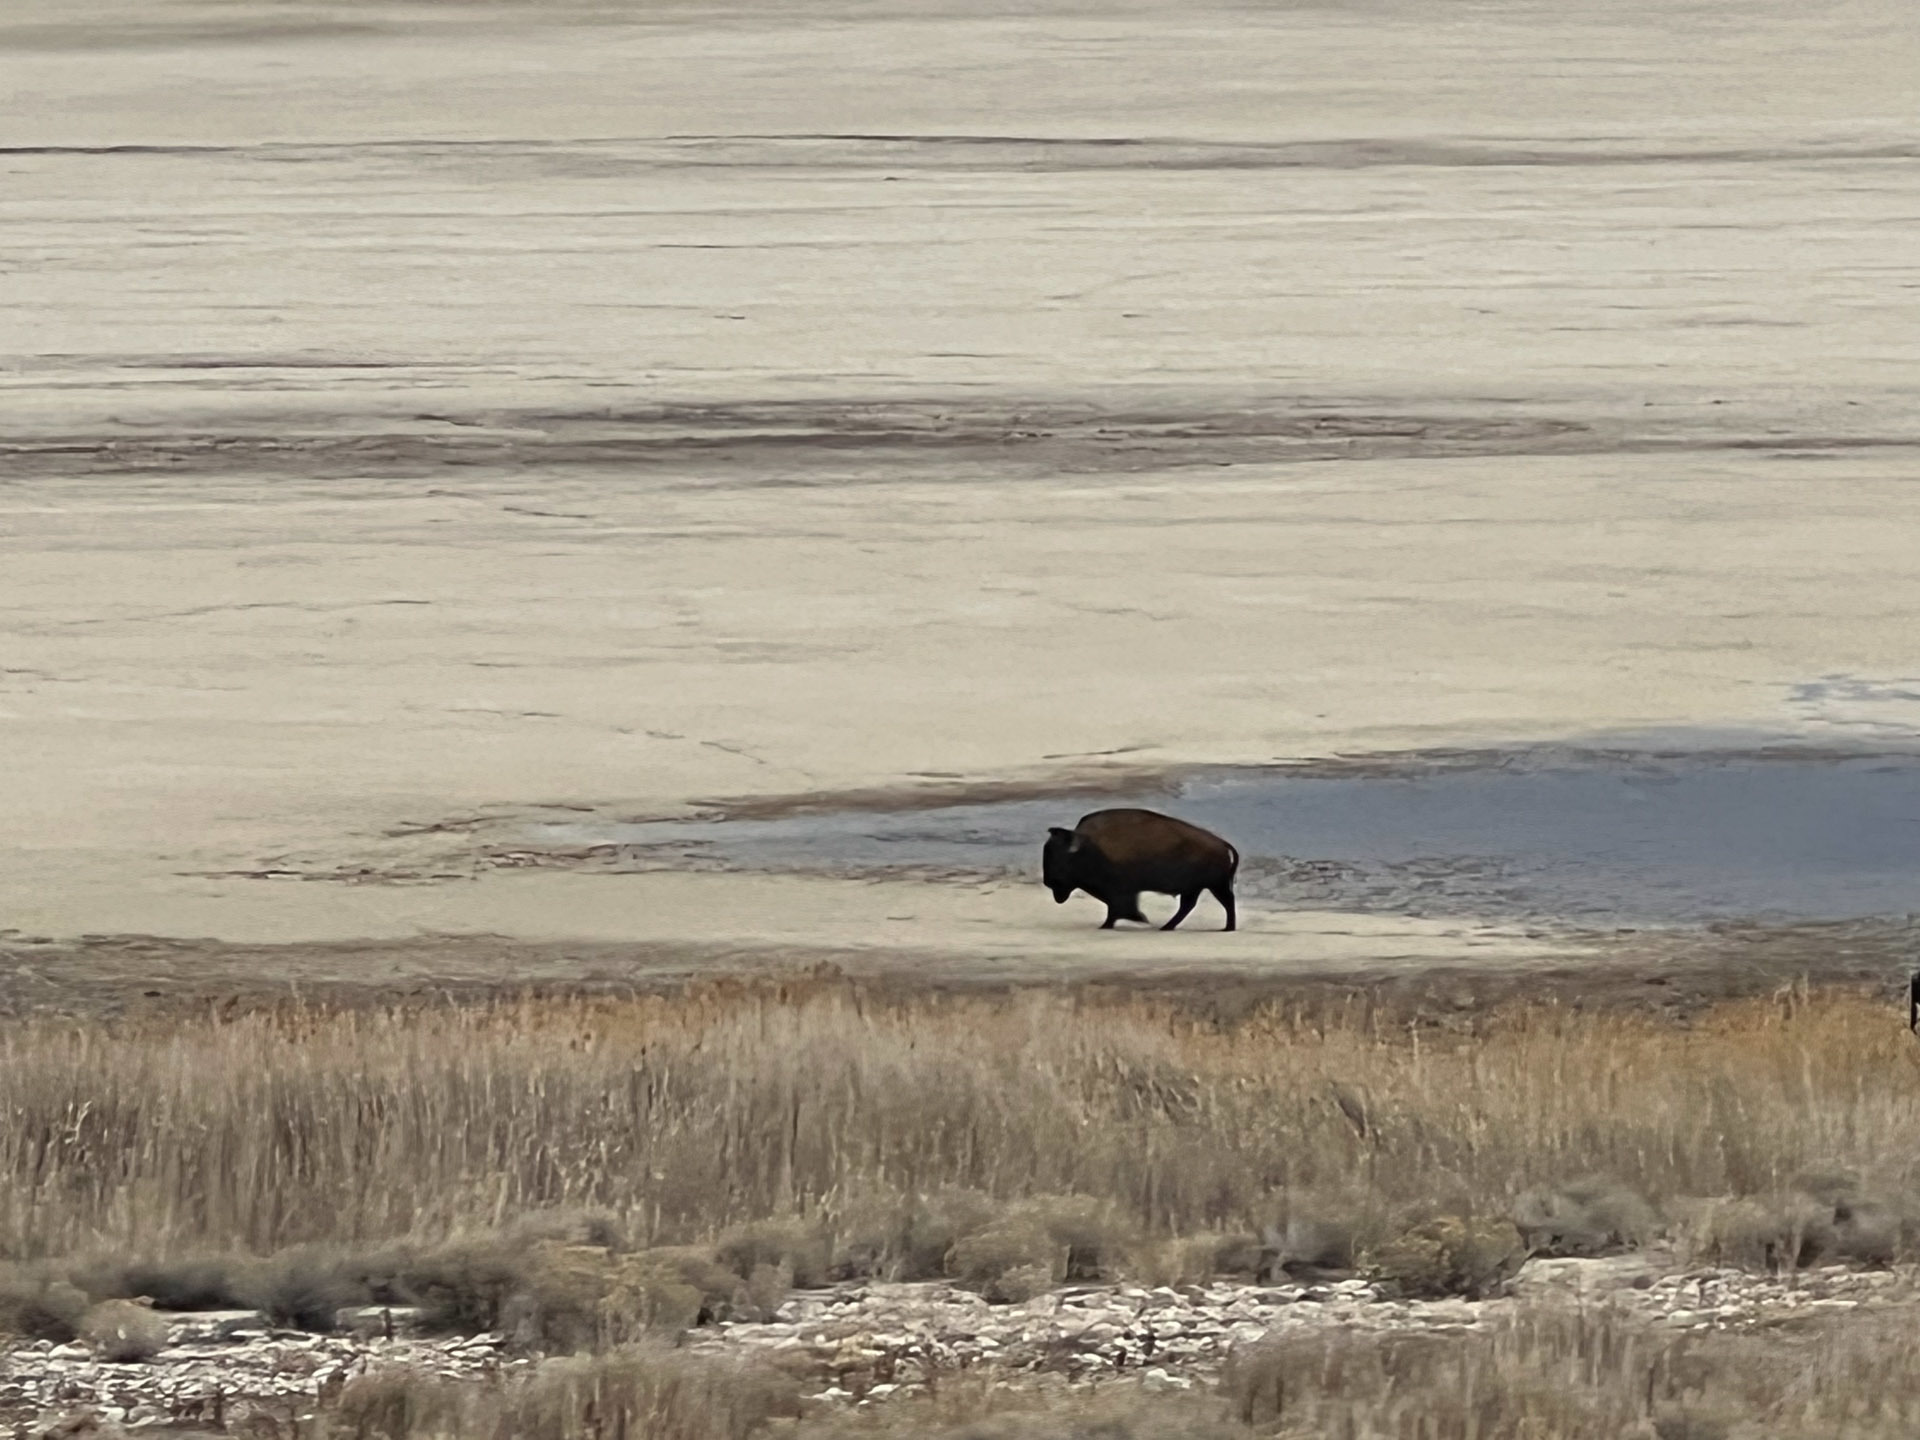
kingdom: Animalia
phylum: Chordata
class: Mammalia
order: Artiodactyla
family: Bovidae
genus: Bison
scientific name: Bison bison
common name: American bison
